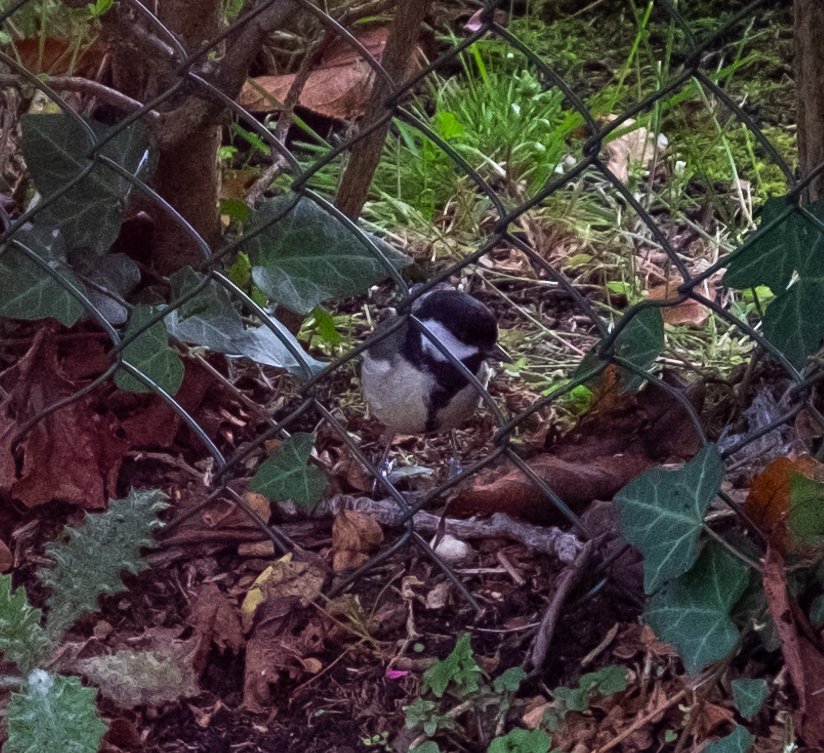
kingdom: Animalia
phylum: Chordata
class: Aves
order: Passeriformes
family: Paridae
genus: Parus
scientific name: Parus major
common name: Great tit
